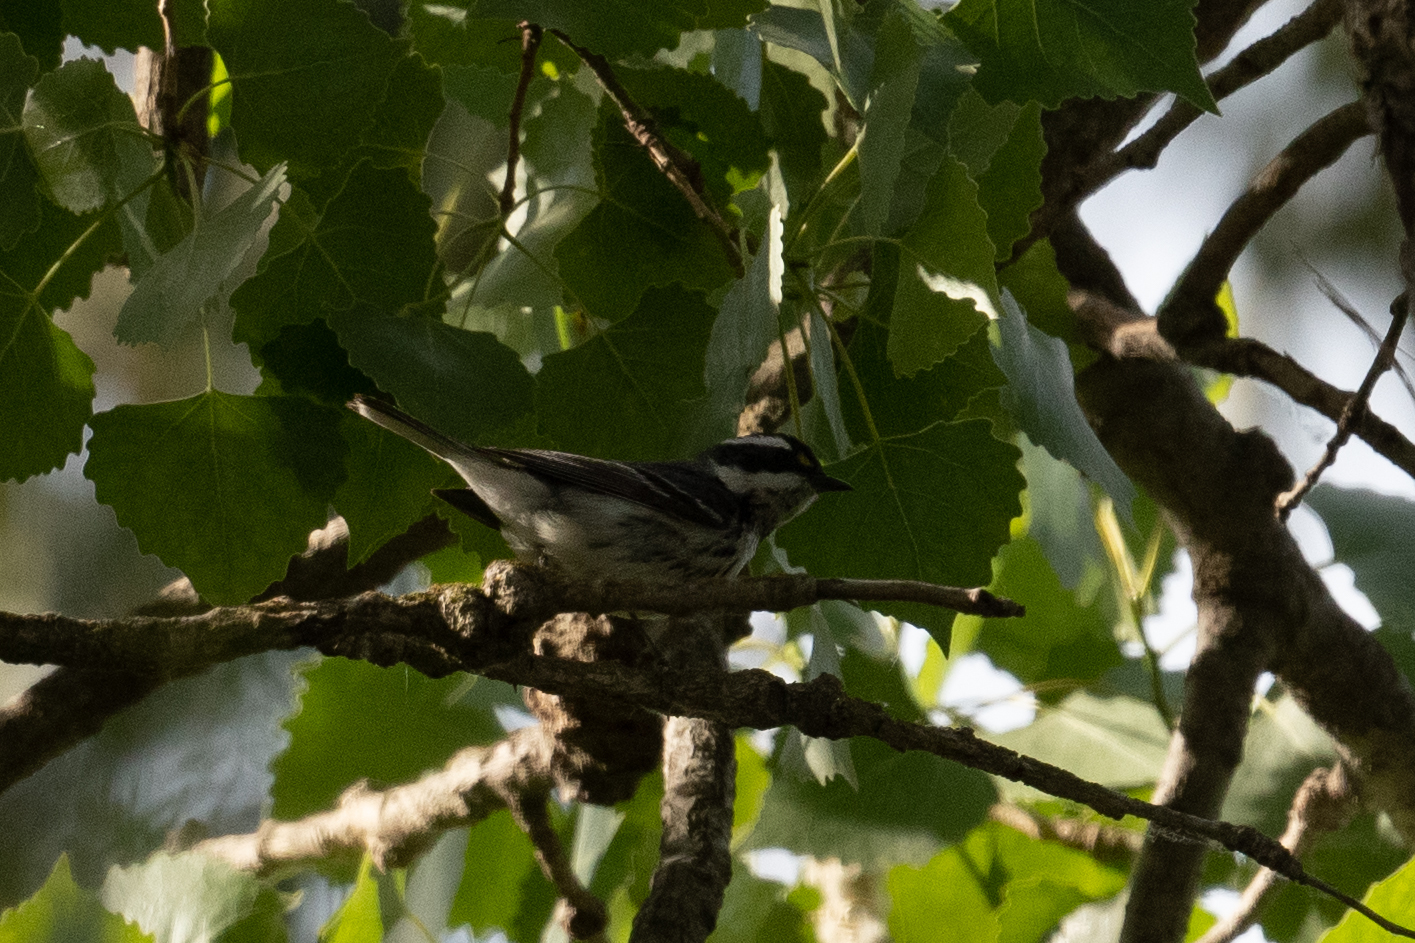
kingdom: Animalia
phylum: Chordata
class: Aves
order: Passeriformes
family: Parulidae
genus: Setophaga
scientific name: Setophaga nigrescens
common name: Black-throated gray warbler
